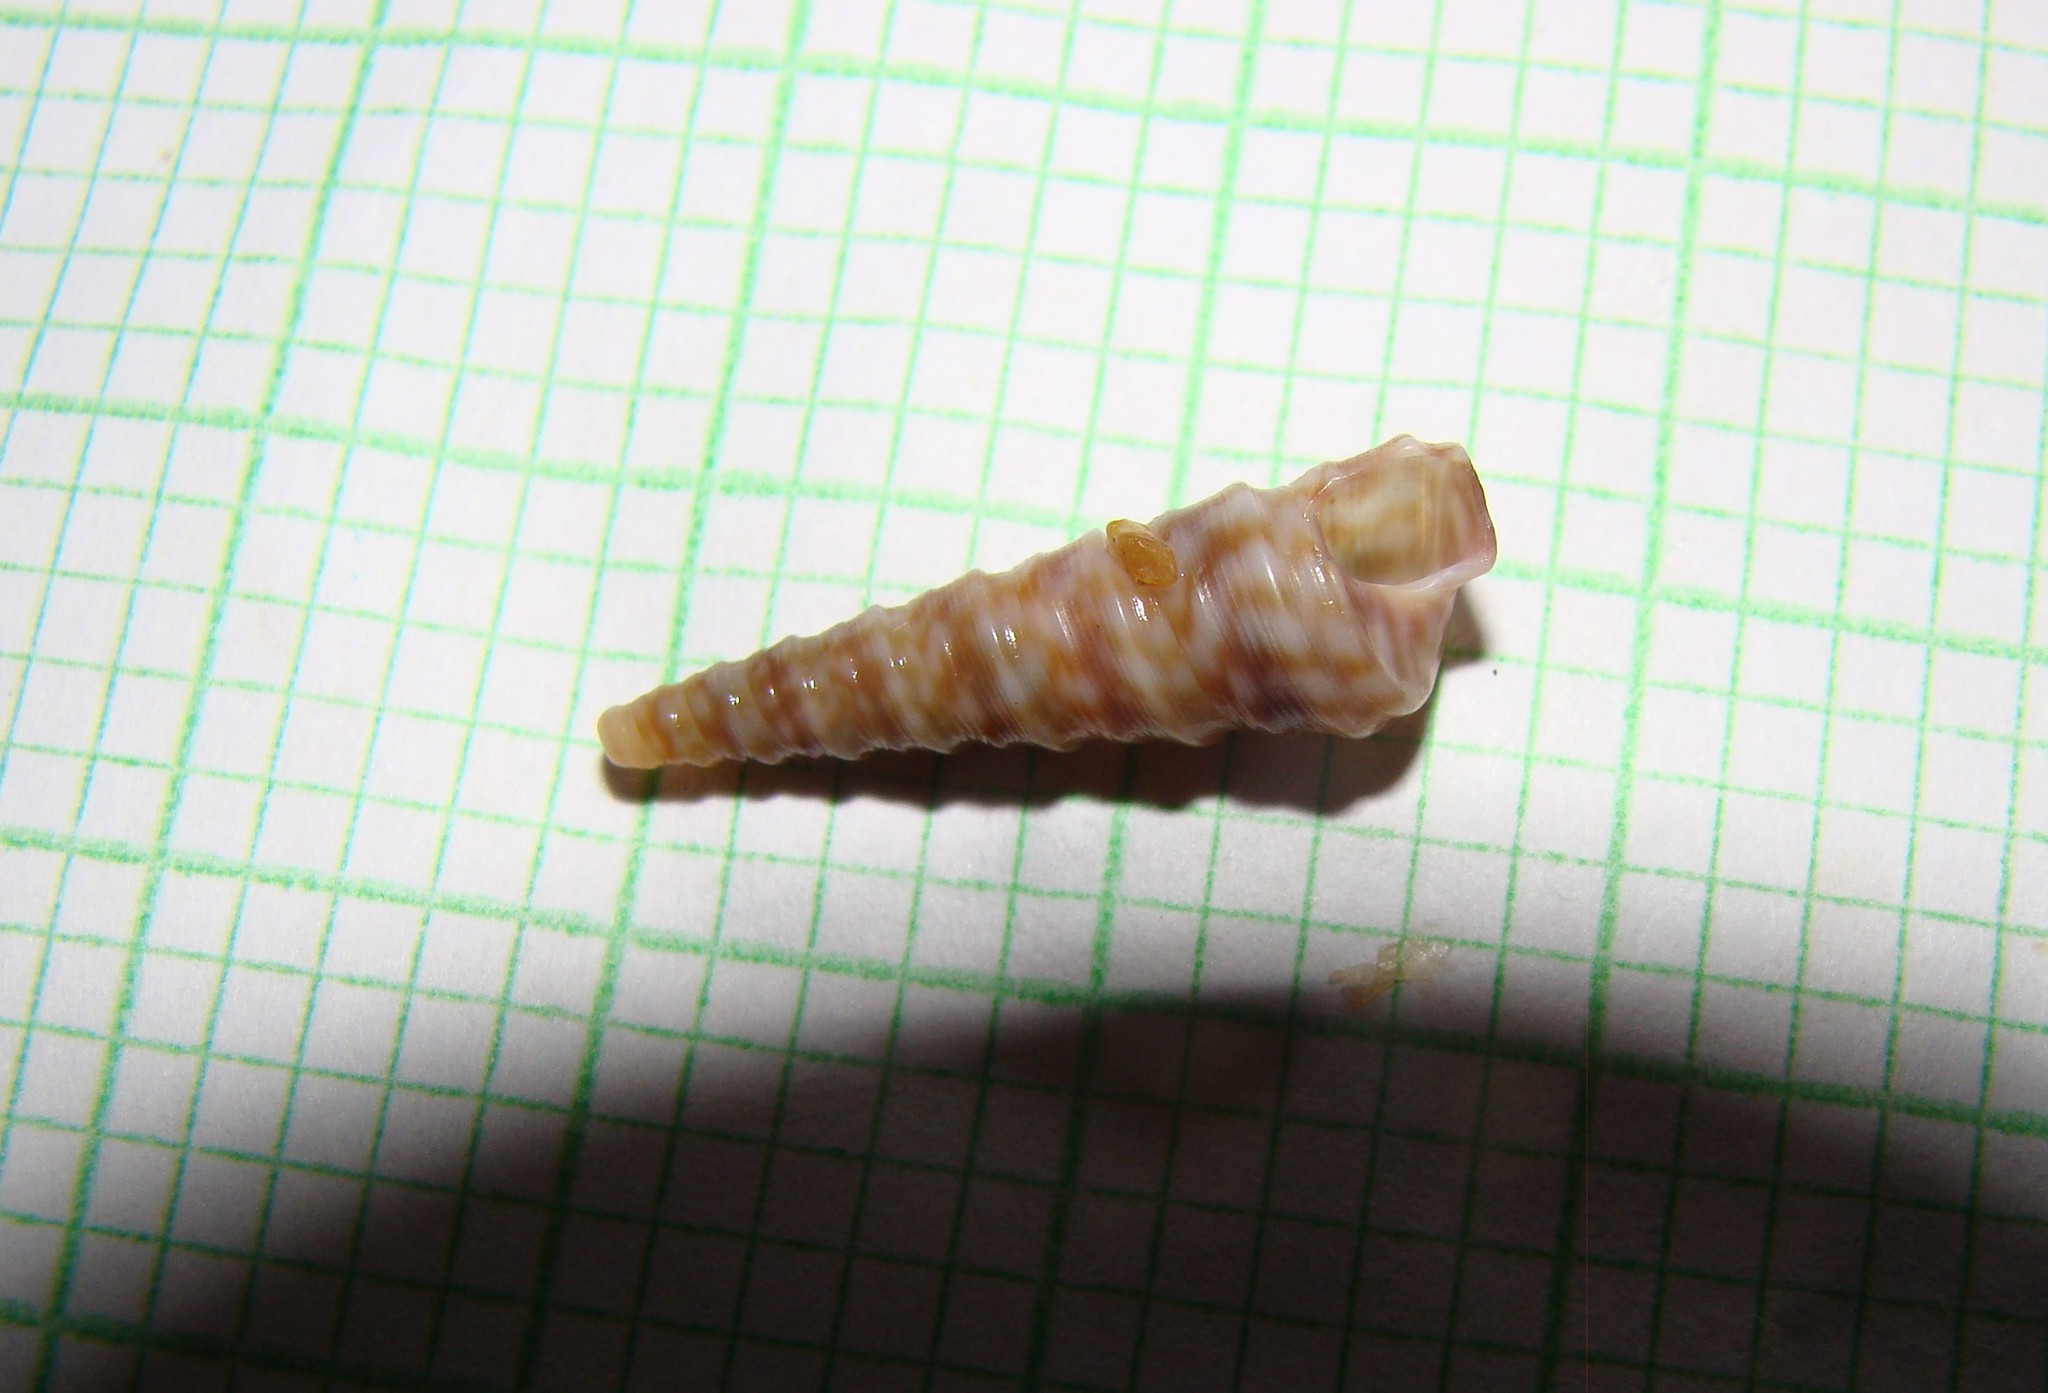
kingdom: Animalia
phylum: Mollusca
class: Gastropoda
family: Turritellidae
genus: Stiracolpus
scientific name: Stiracolpus pagoda
